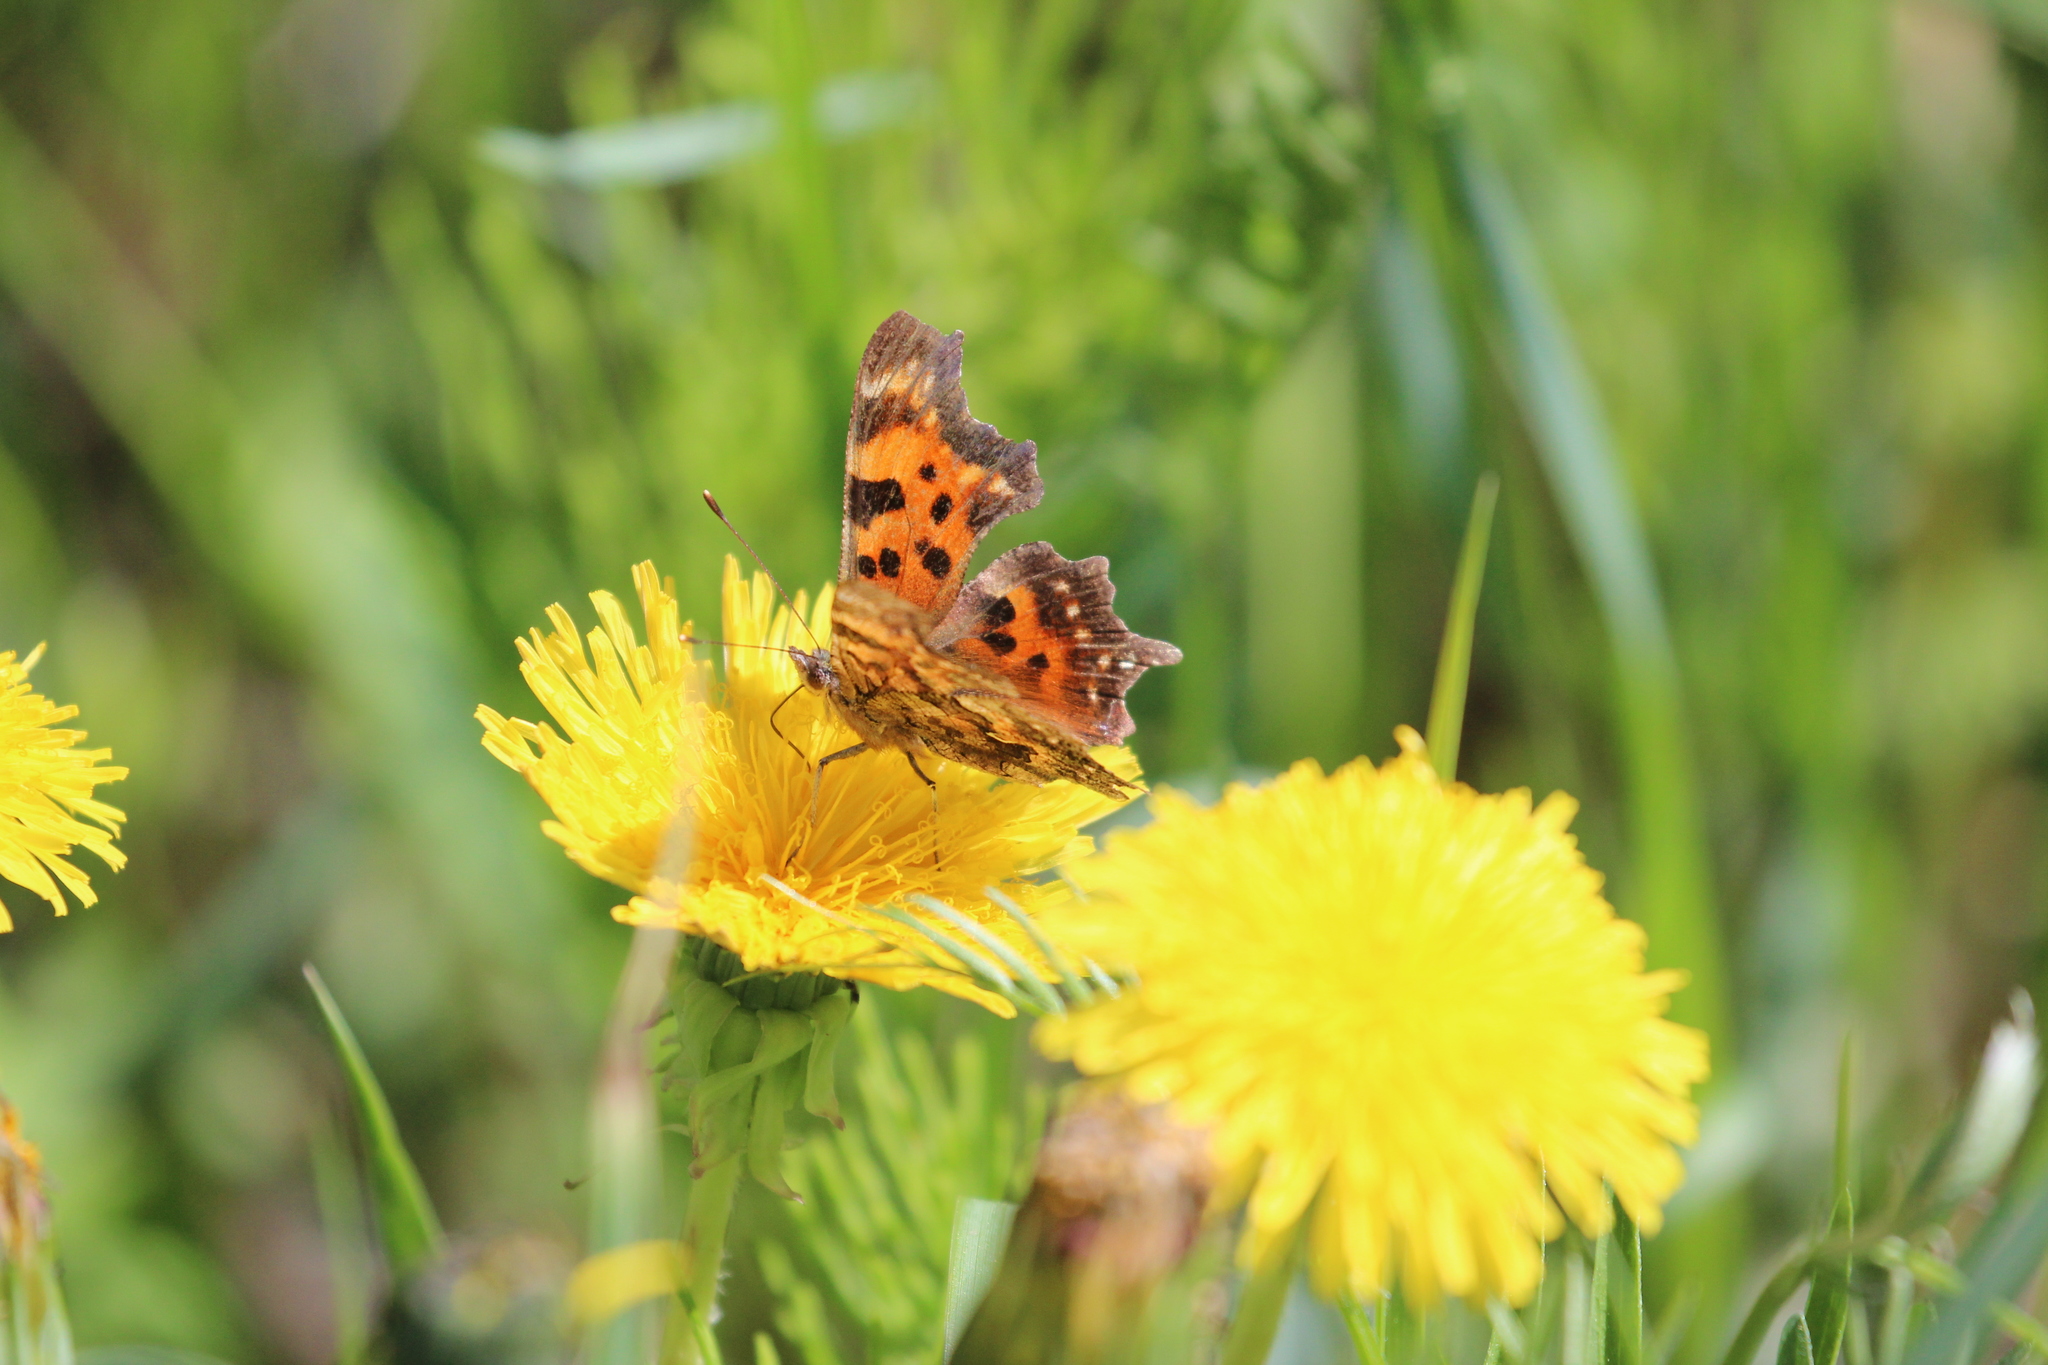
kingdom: Animalia
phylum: Arthropoda
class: Insecta
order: Lepidoptera
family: Nymphalidae
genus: Polygonia
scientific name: Polygonia faunus
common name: Green comma
